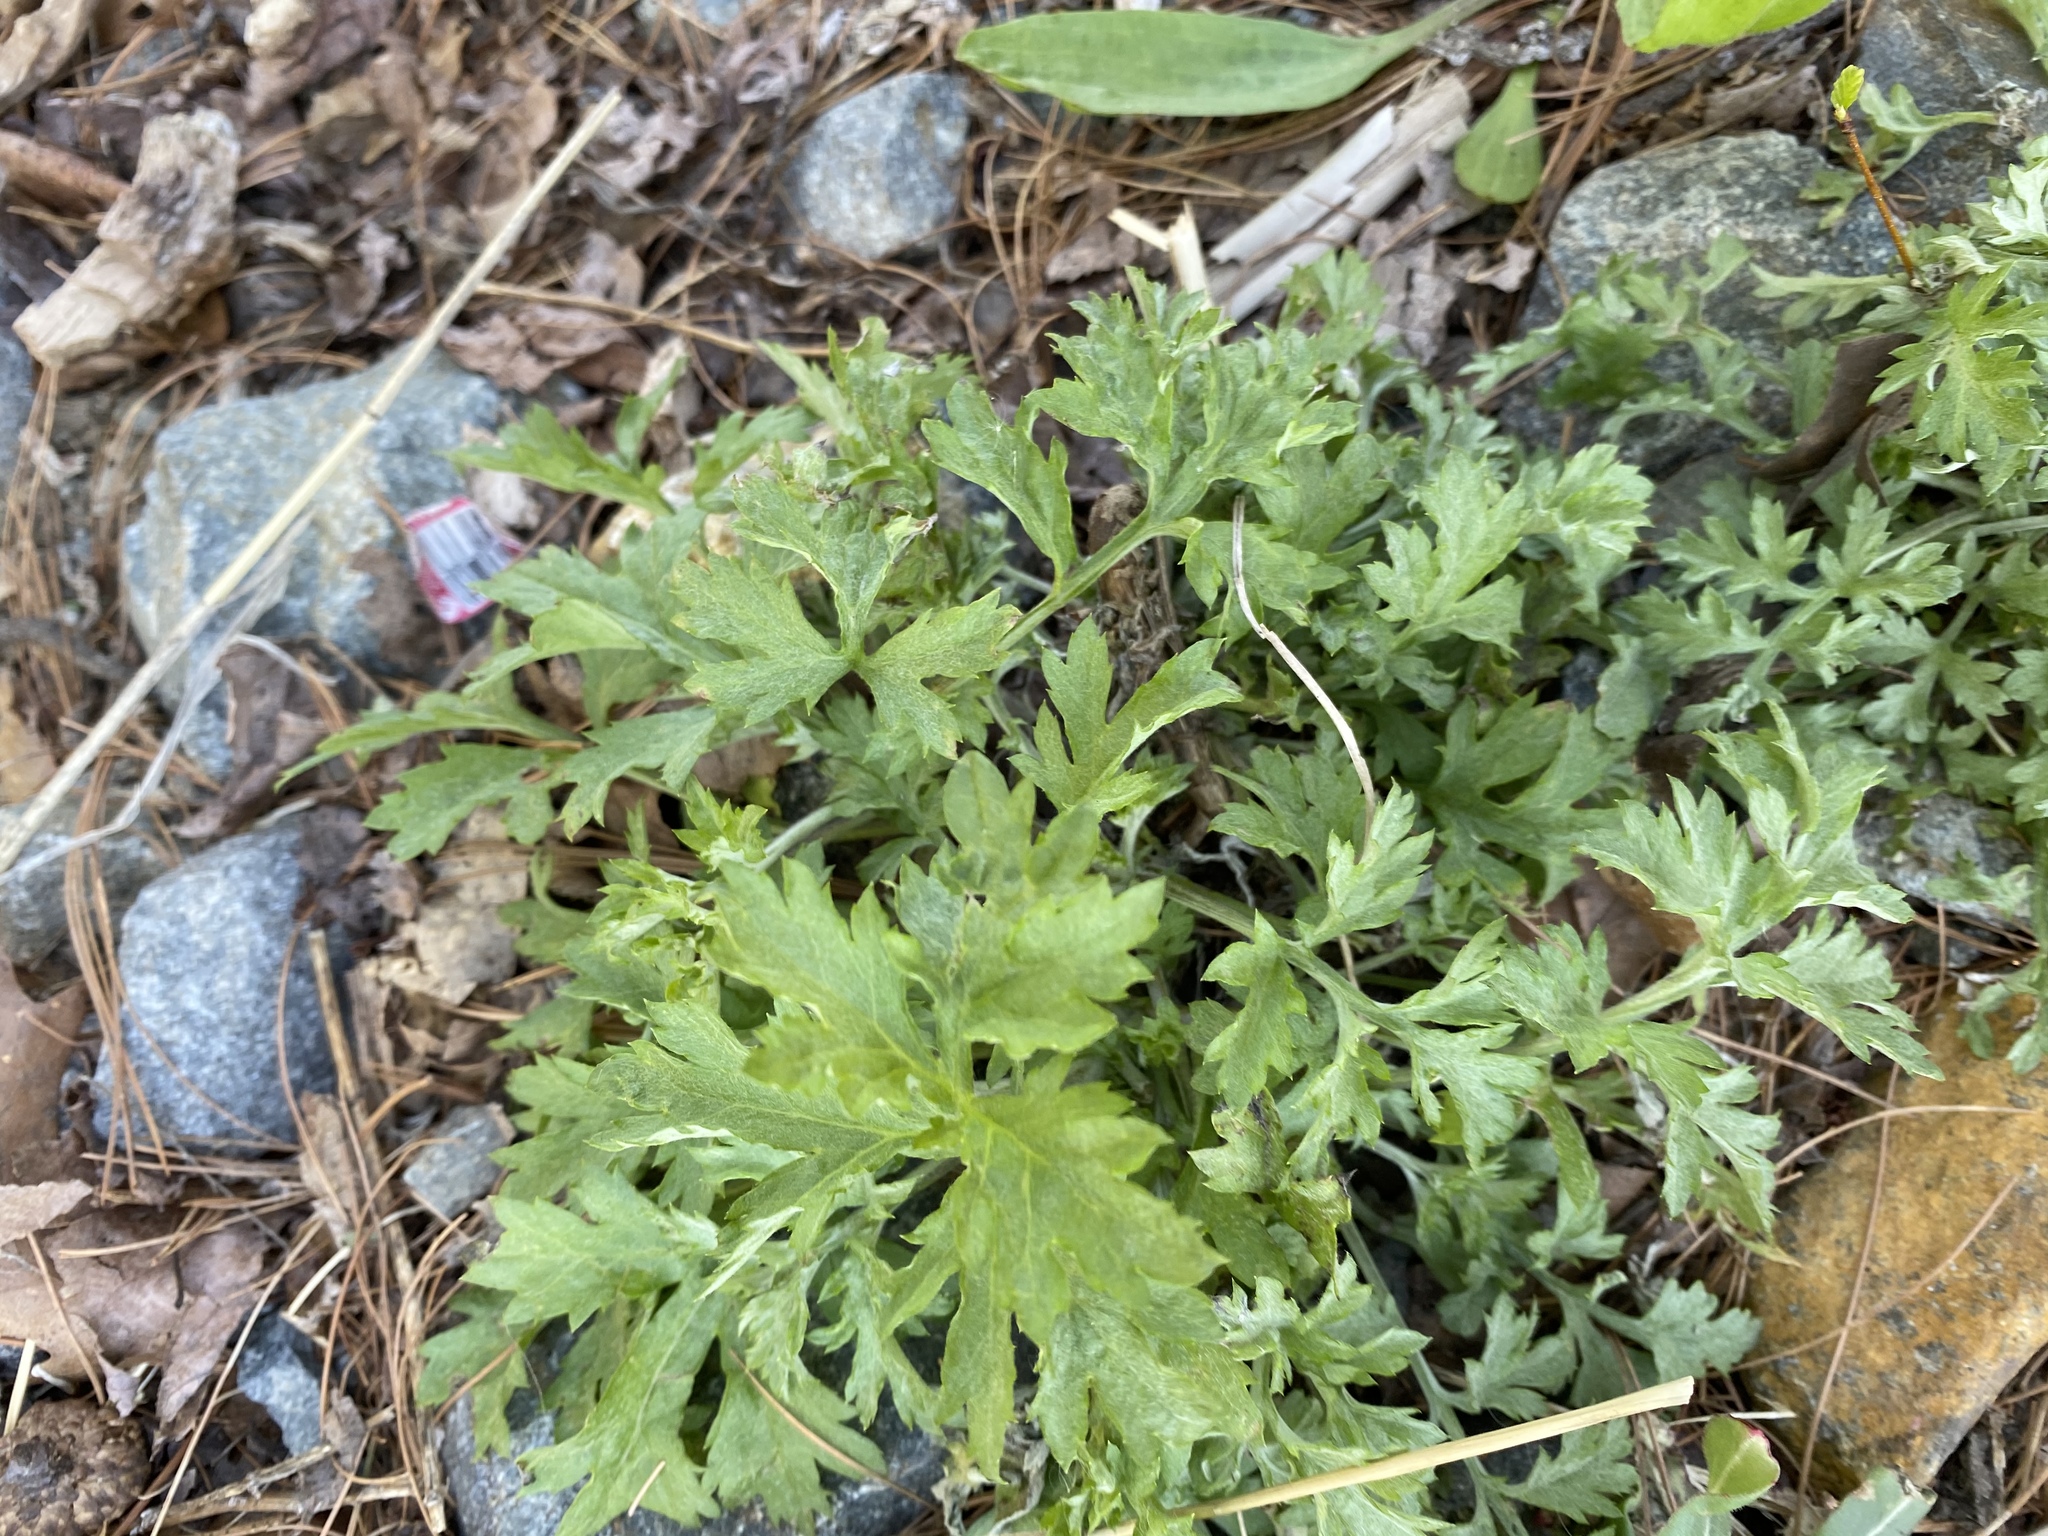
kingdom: Plantae
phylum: Tracheophyta
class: Magnoliopsida
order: Asterales
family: Asteraceae
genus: Artemisia
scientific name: Artemisia vulgaris
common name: Mugwort
